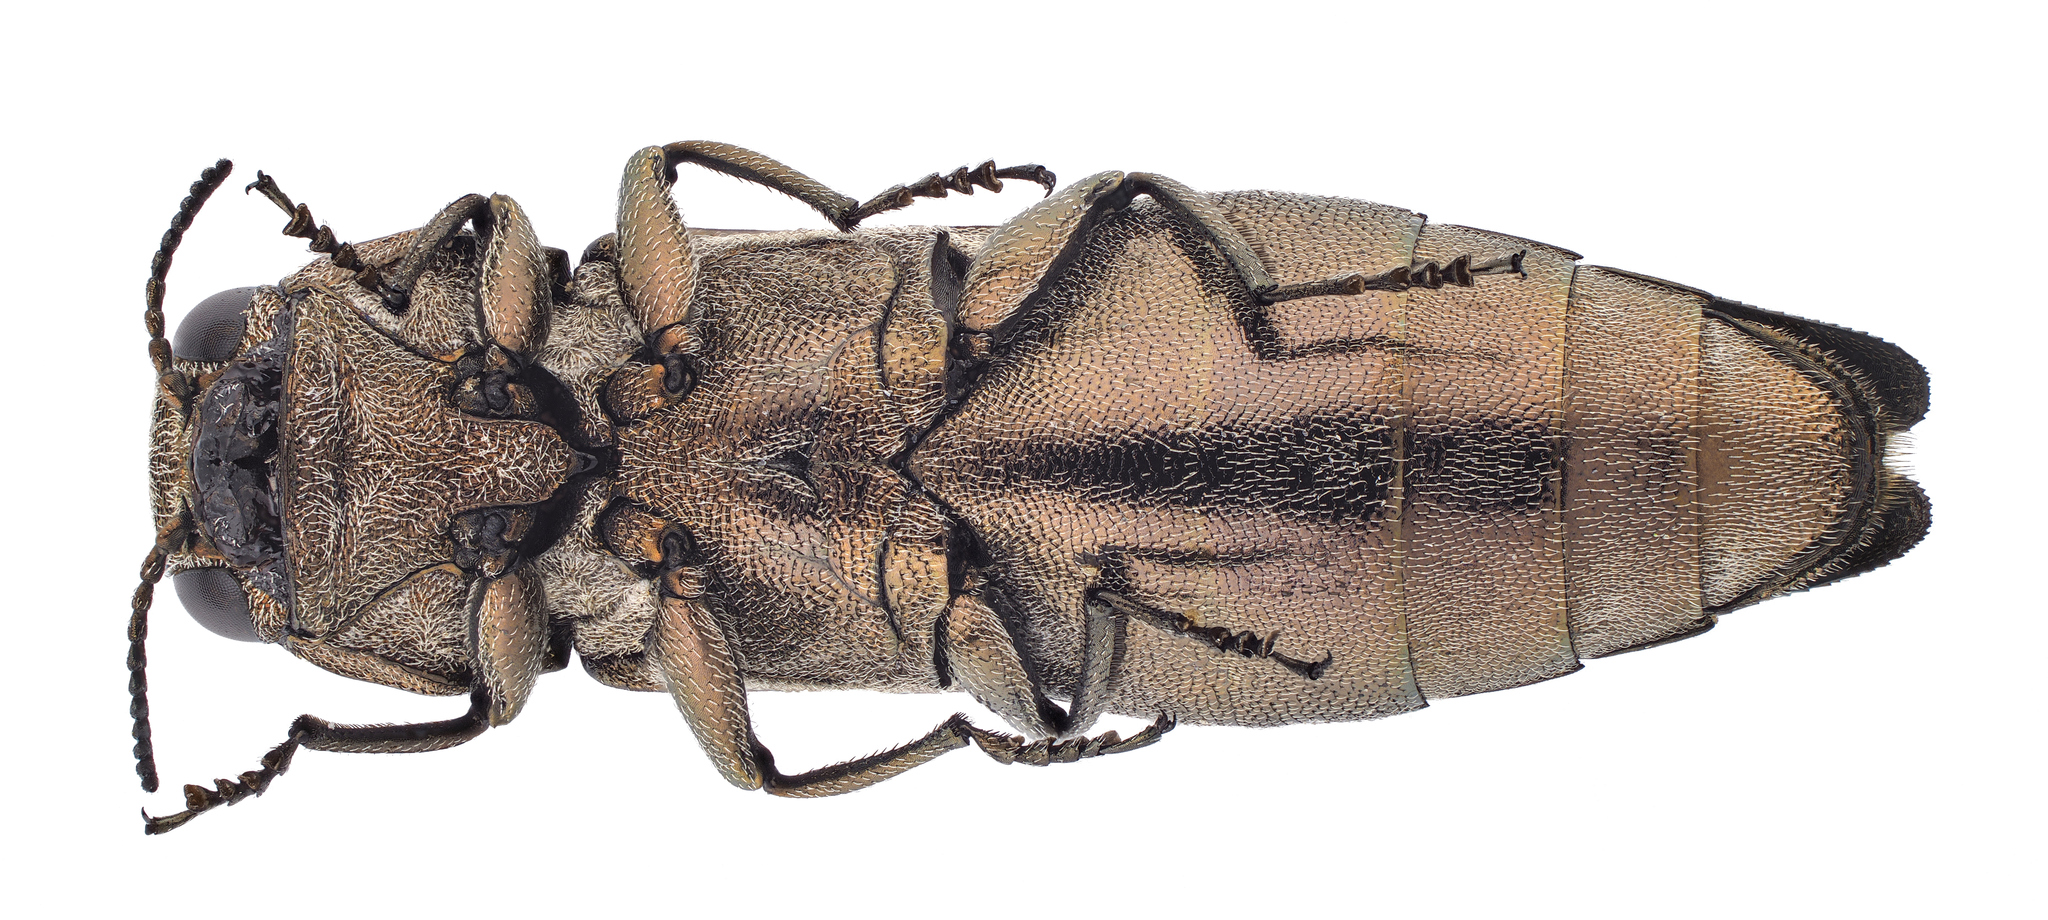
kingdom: Animalia
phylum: Arthropoda
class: Insecta
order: Coleoptera
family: Buprestidae
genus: Agrilus
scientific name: Agrilus cinctus
